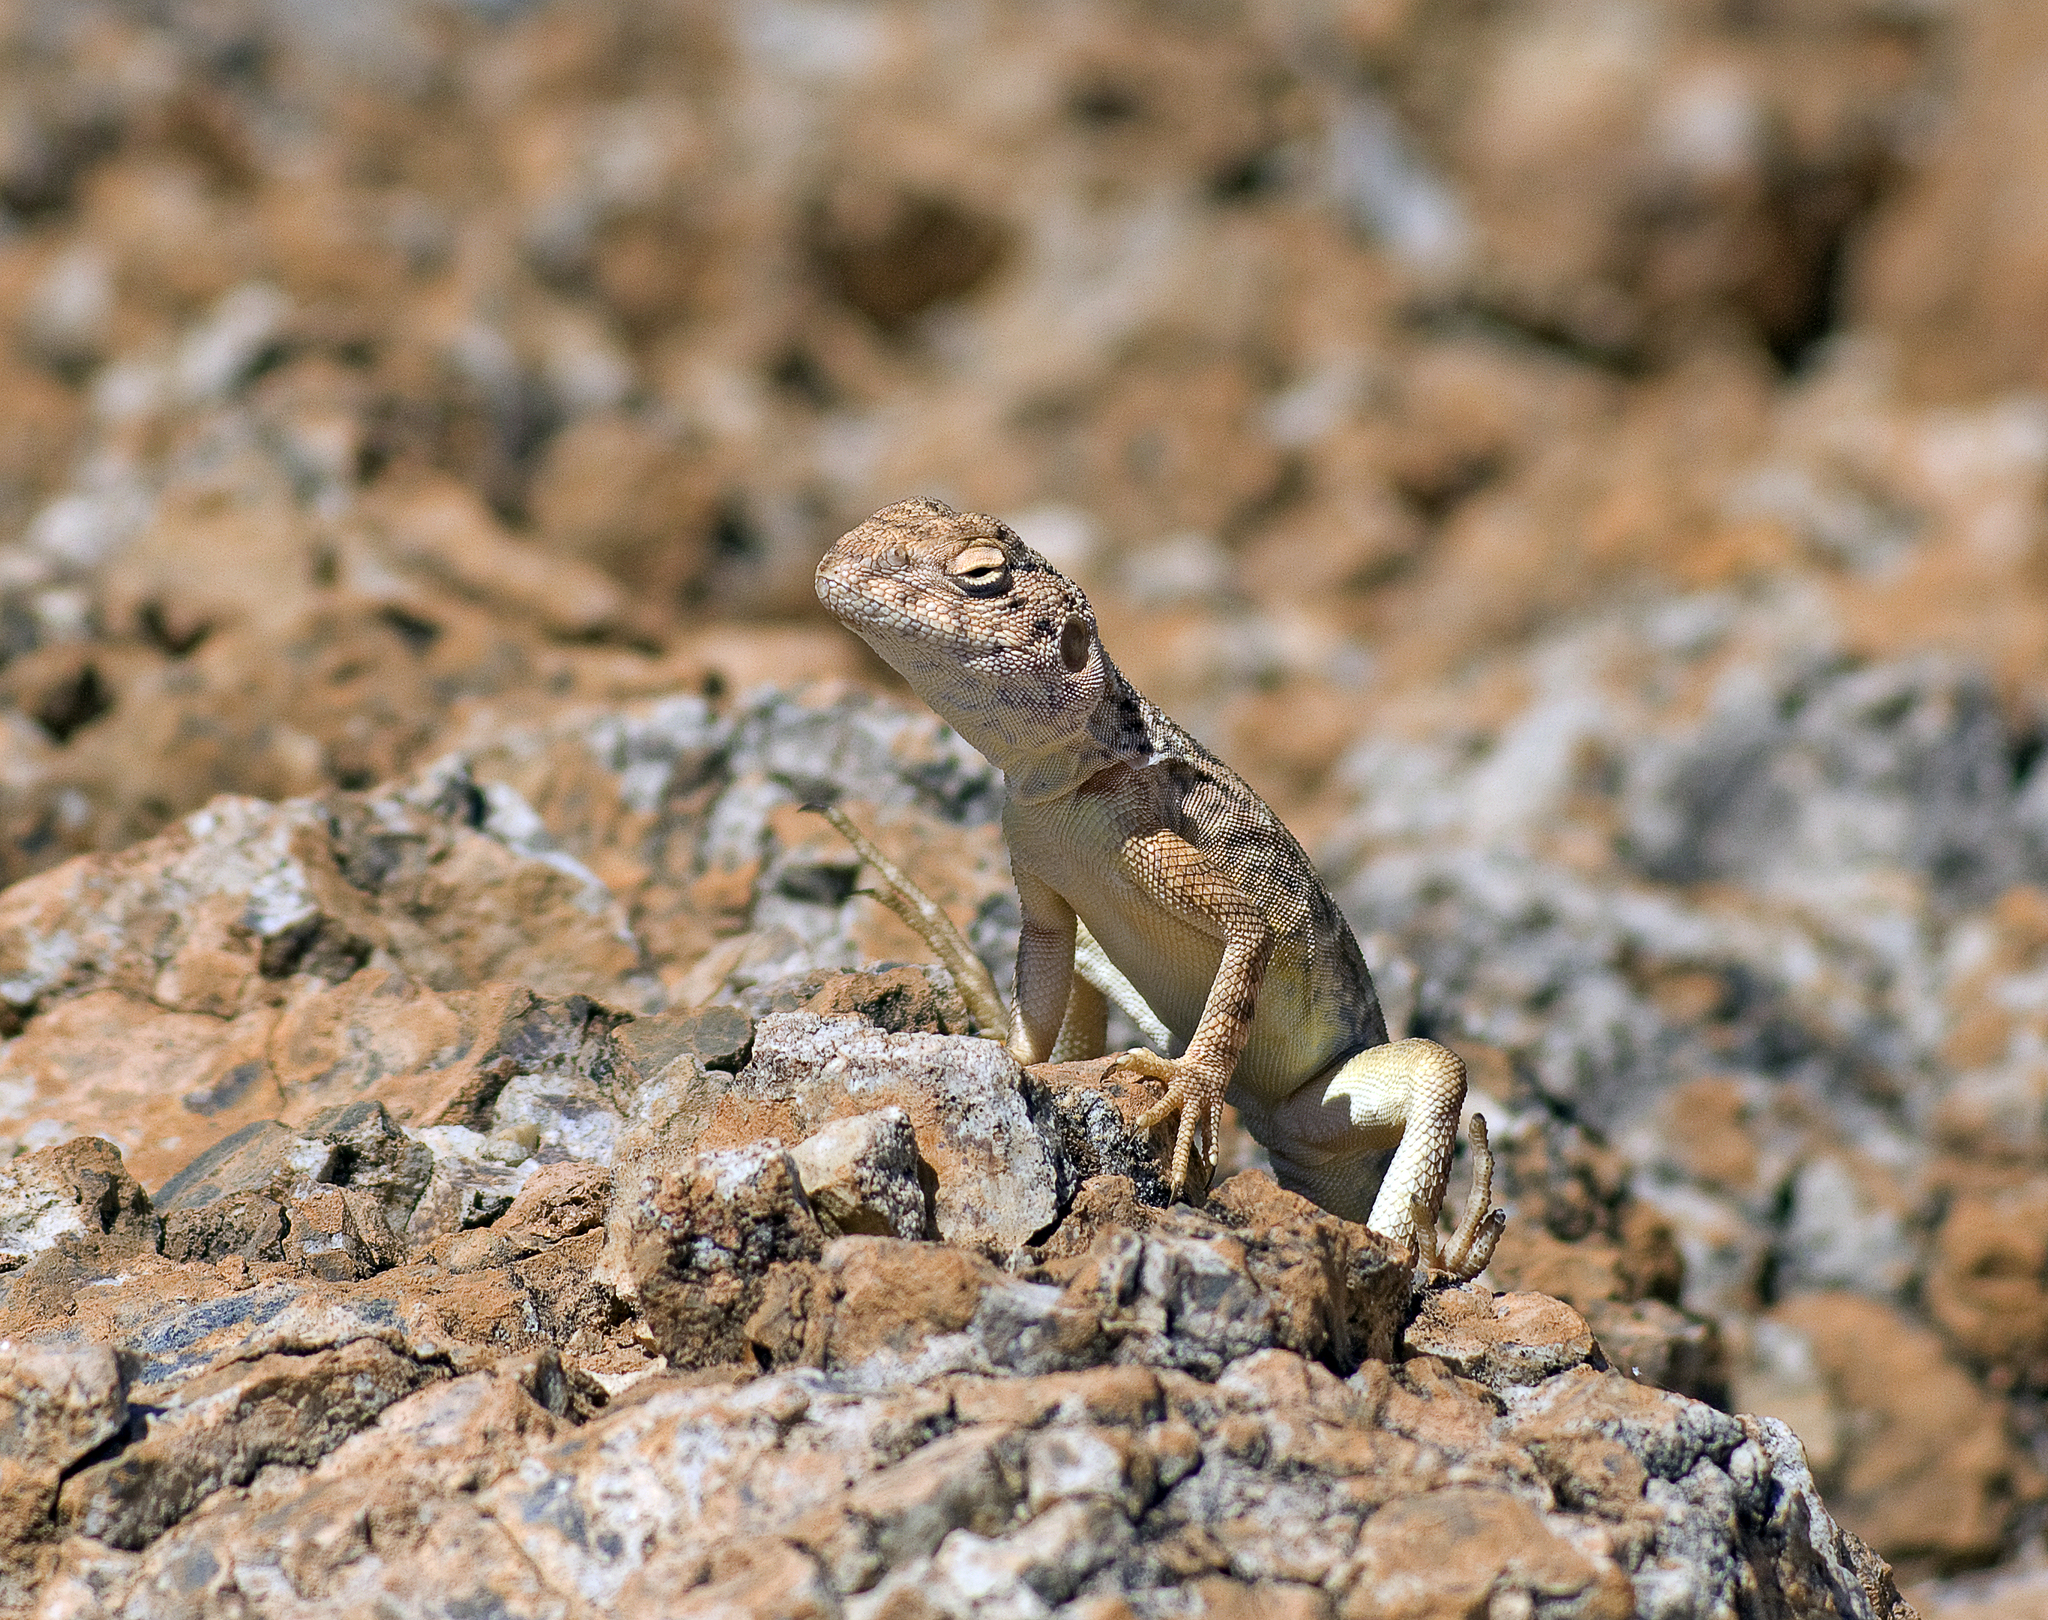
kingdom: Animalia
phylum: Chordata
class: Squamata
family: Agamidae
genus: Ctenophorus
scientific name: Ctenophorus slateri
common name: Slater’s dragon
